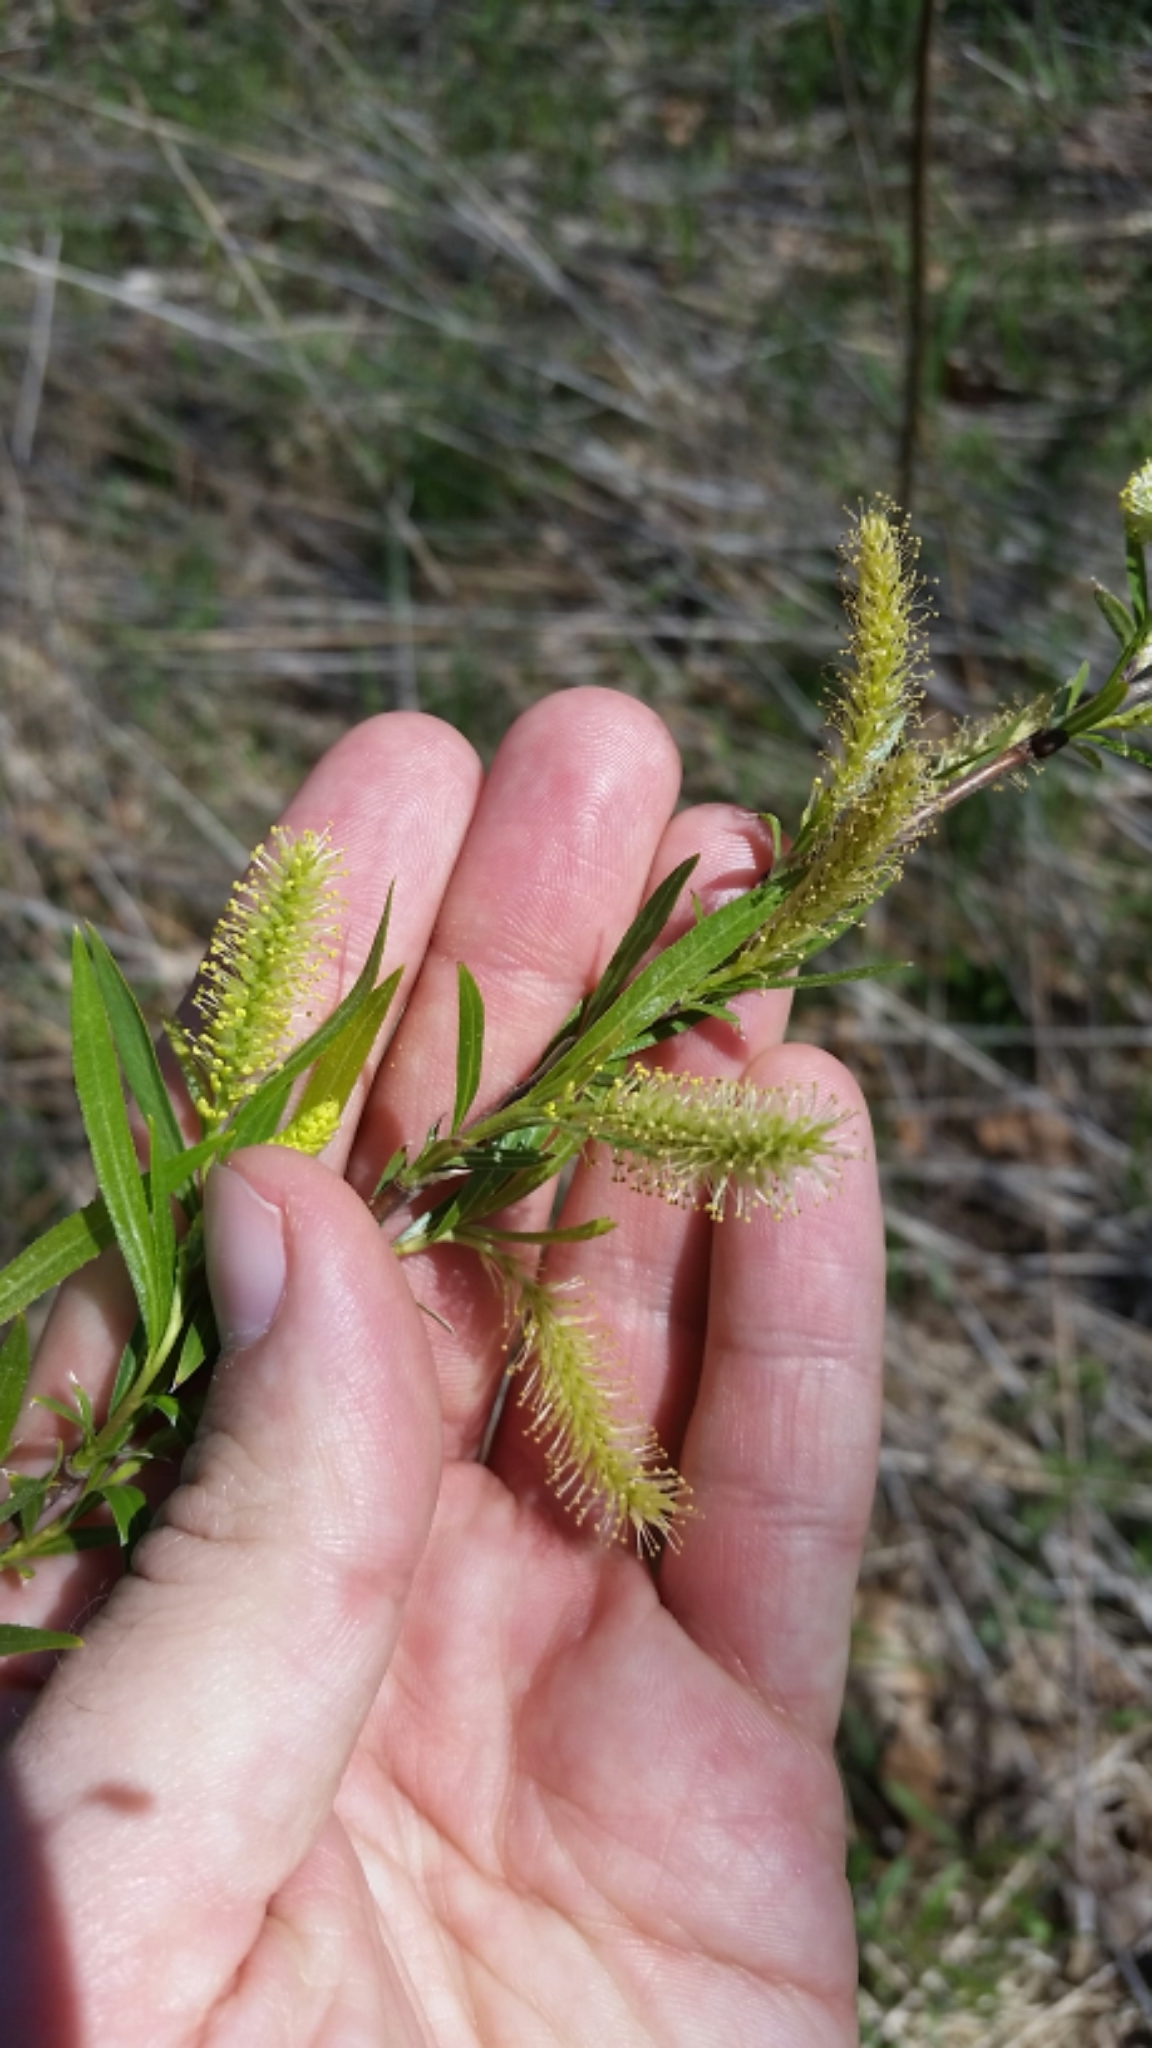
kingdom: Plantae
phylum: Tracheophyta
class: Magnoliopsida
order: Malpighiales
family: Salicaceae
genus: Salix
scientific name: Salix interior
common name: Sandbar willow
